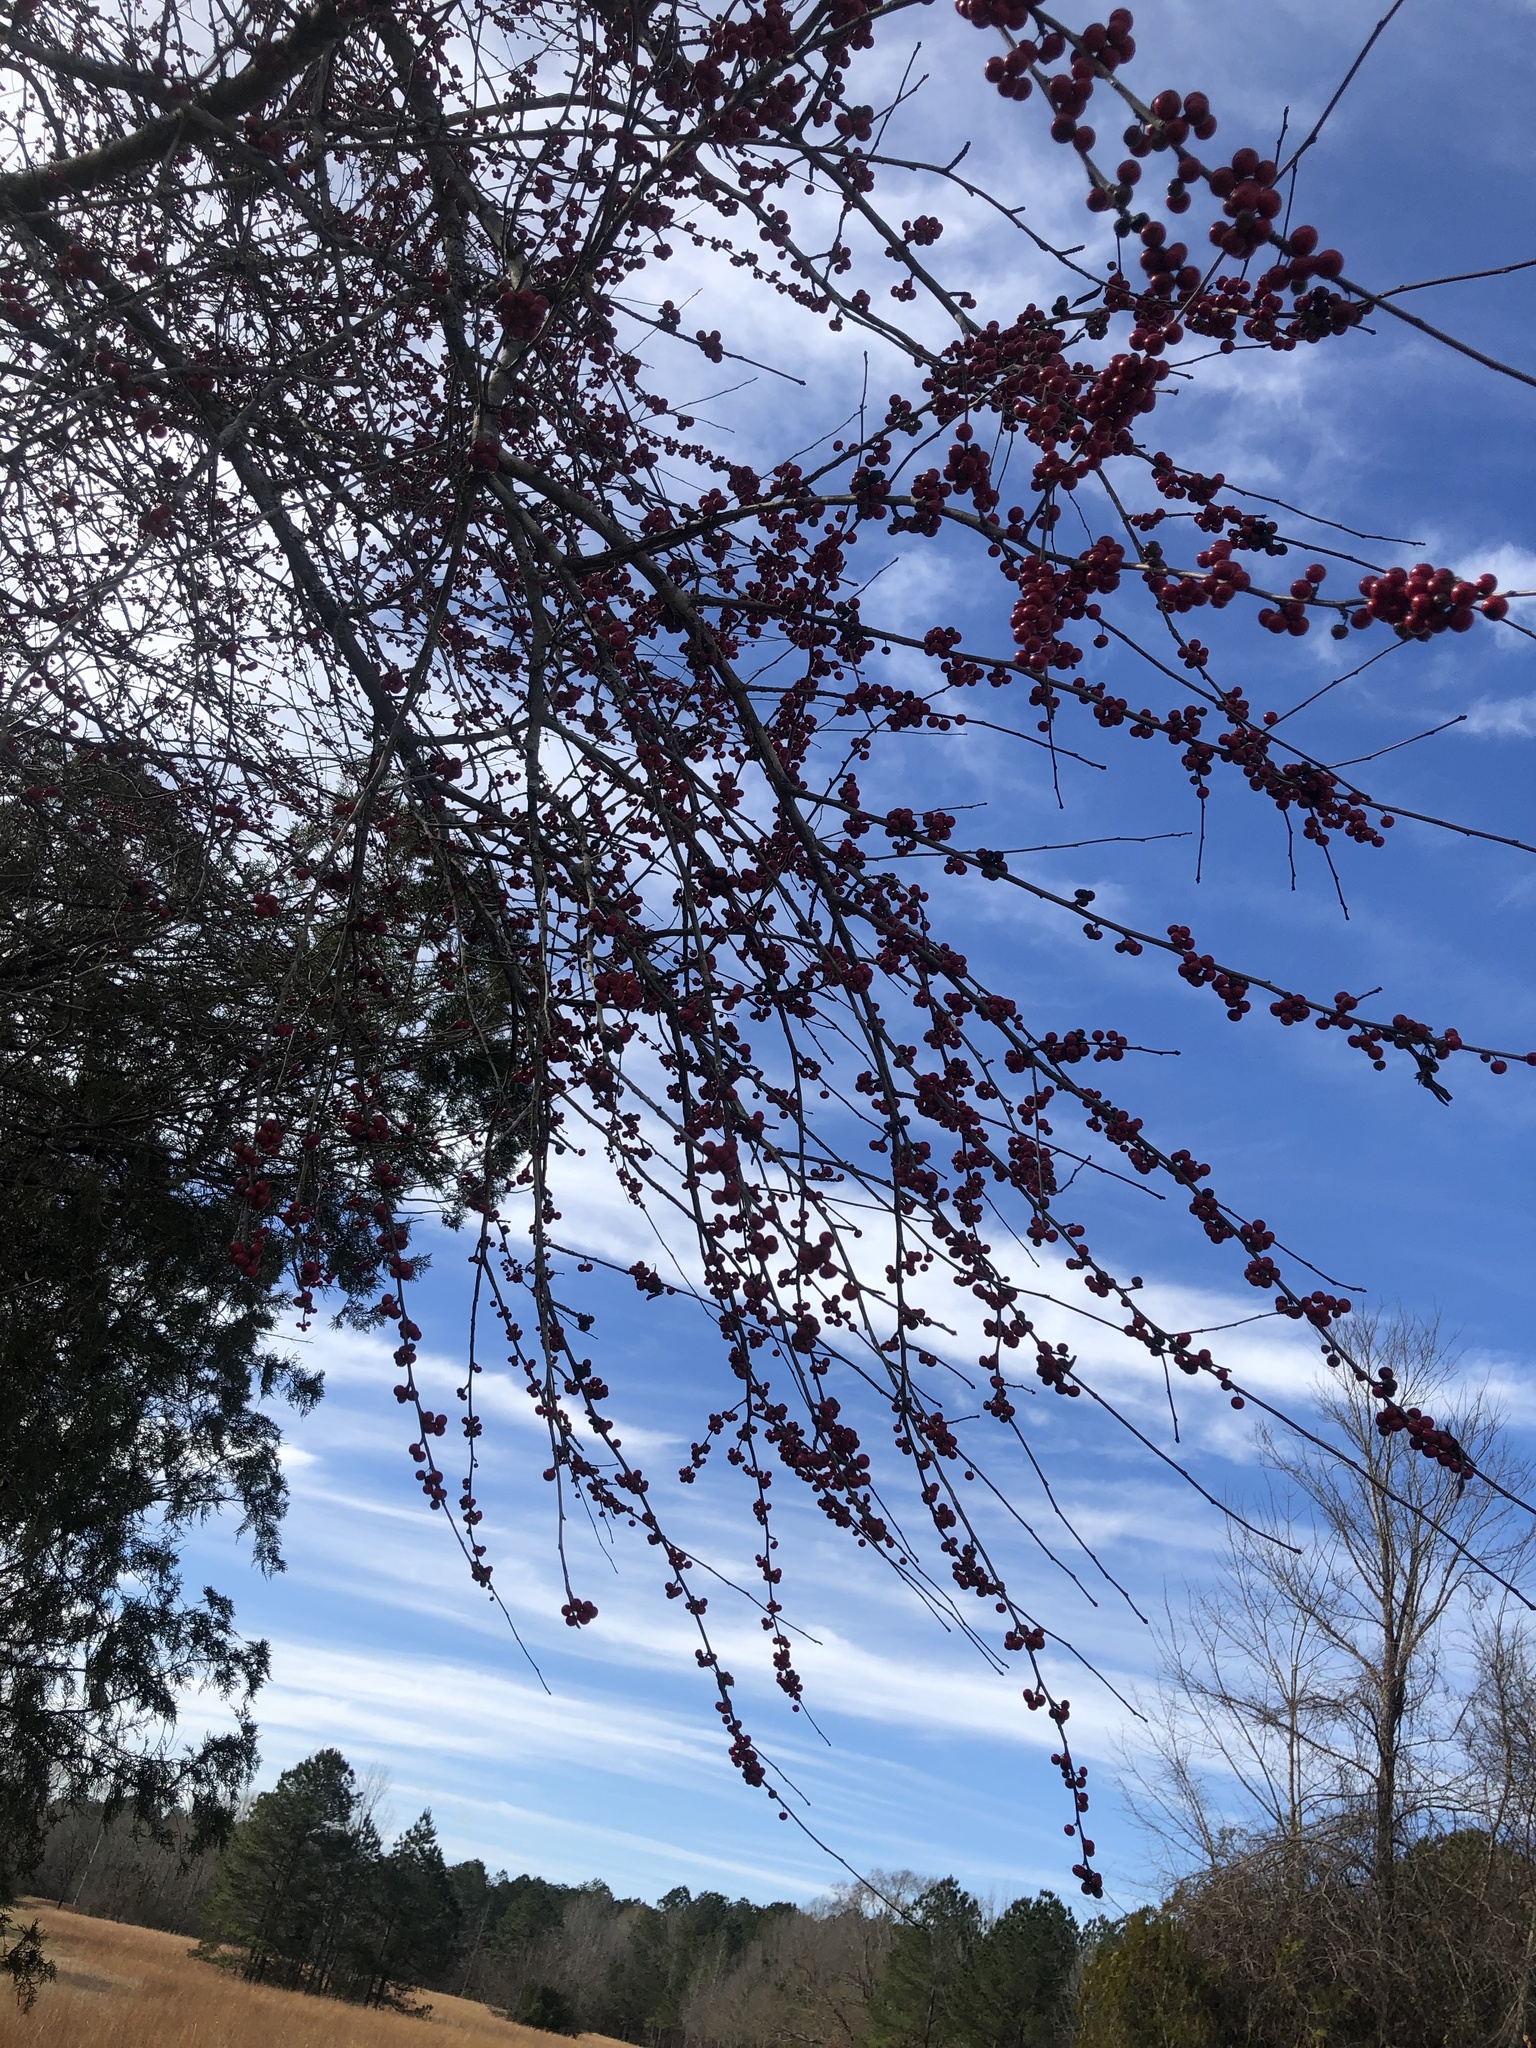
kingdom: Plantae
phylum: Tracheophyta
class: Magnoliopsida
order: Aquifoliales
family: Aquifoliaceae
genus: Ilex
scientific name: Ilex decidua
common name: Possum-haw
